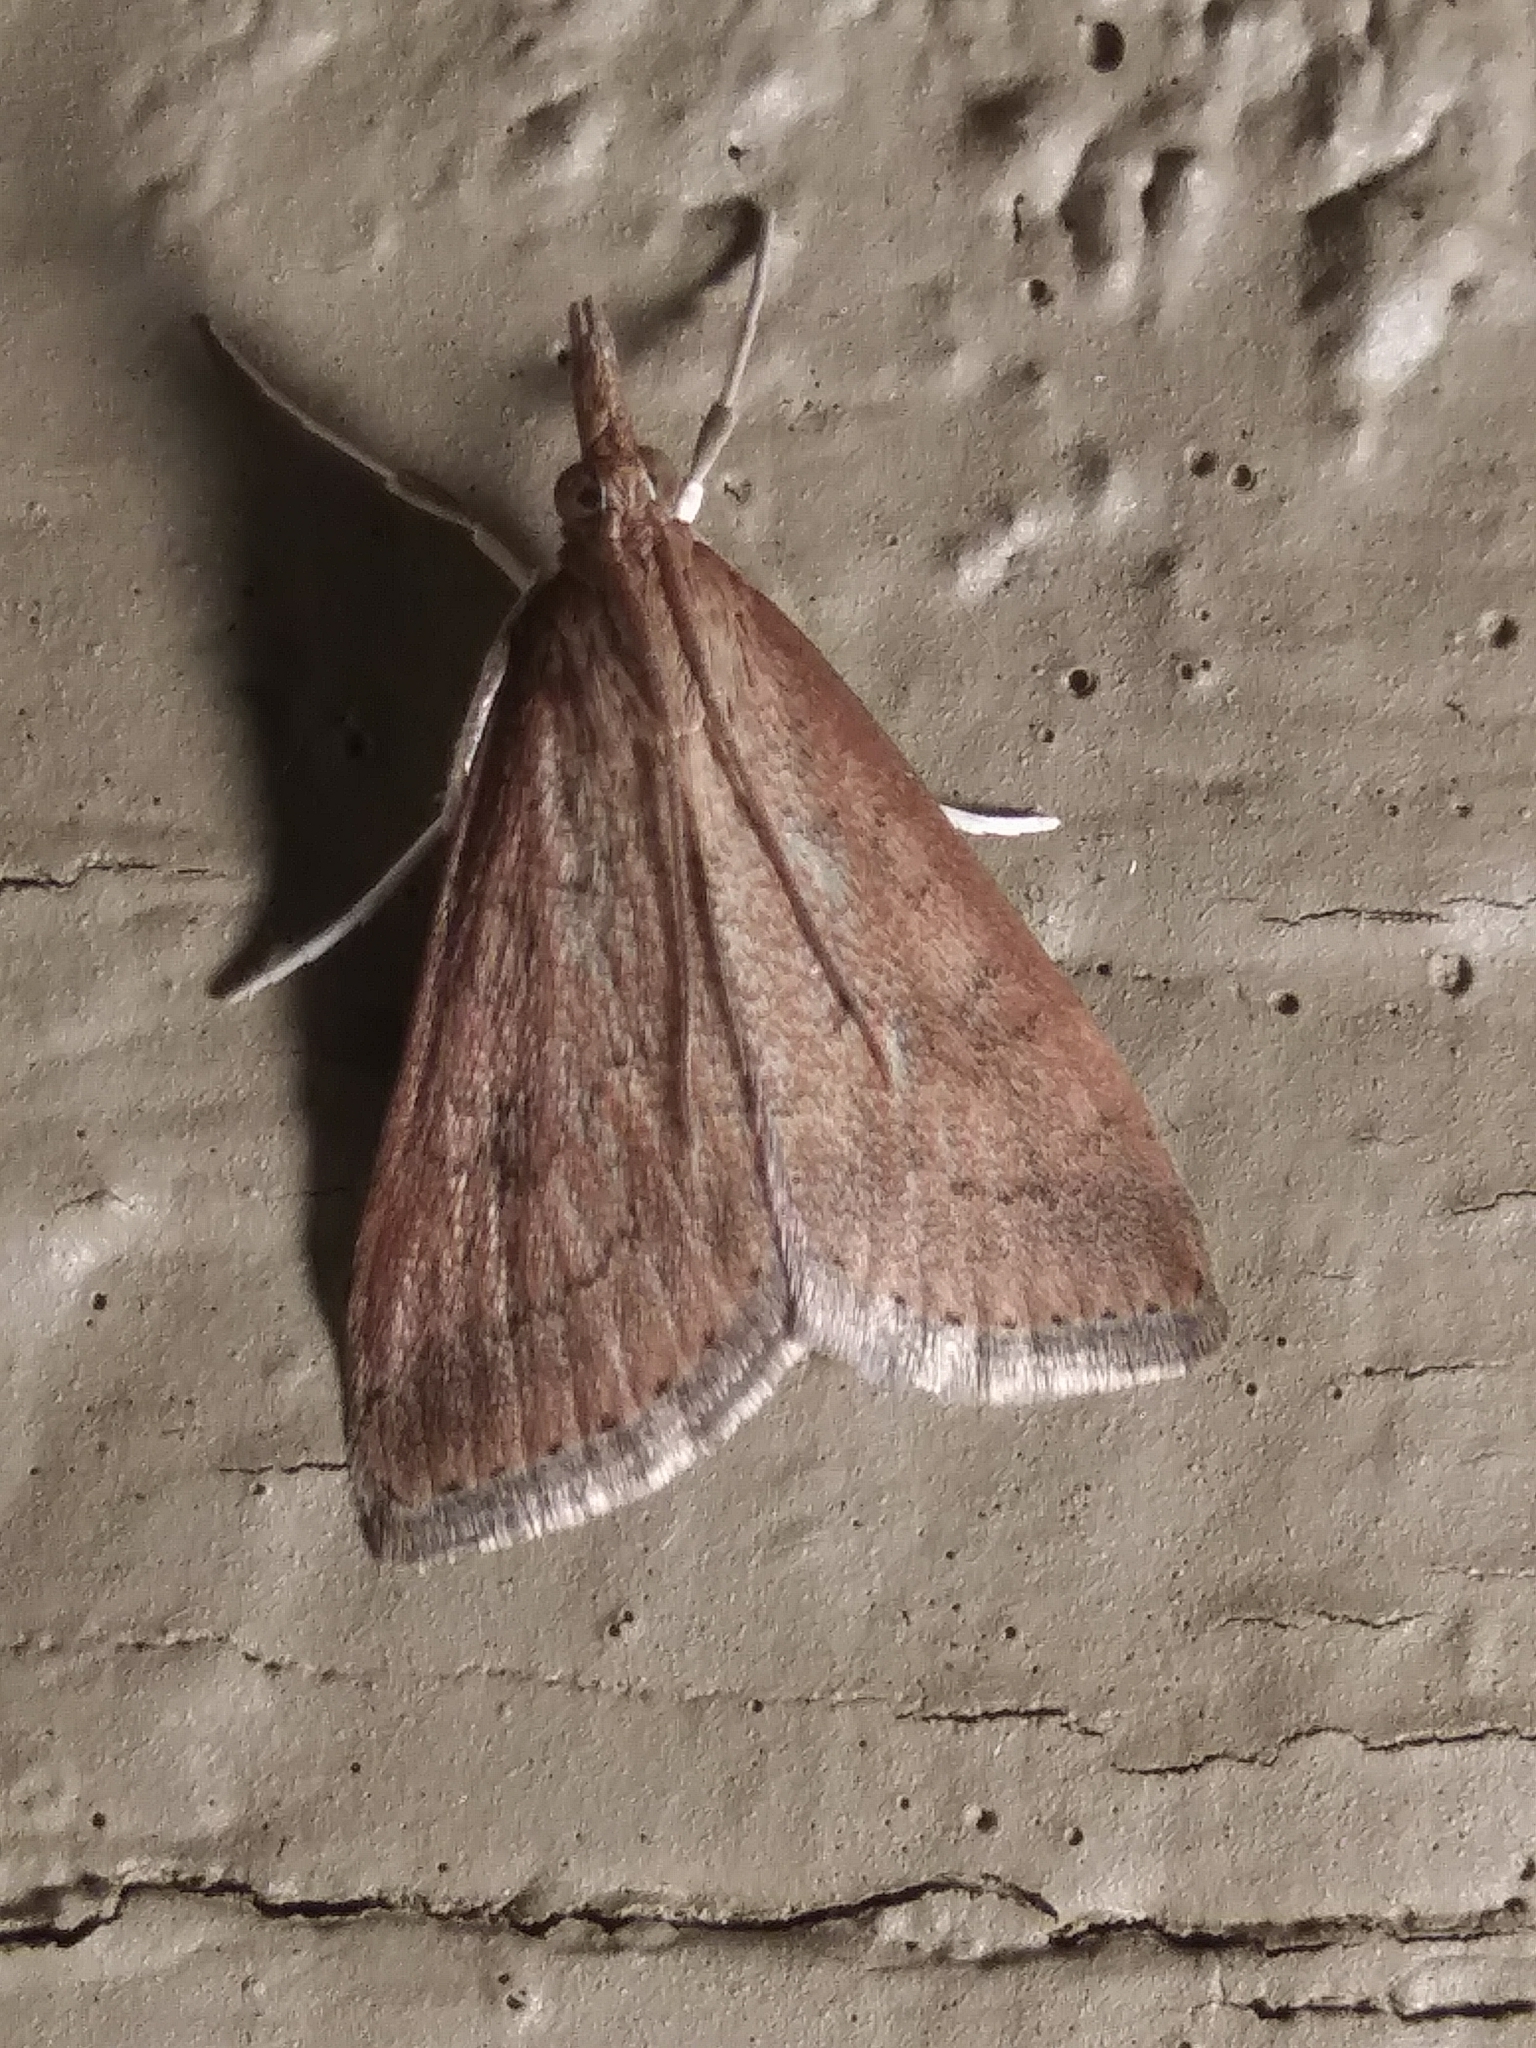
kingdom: Animalia
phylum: Arthropoda
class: Insecta
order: Lepidoptera
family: Crambidae
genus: Udea
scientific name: Udea rubigalis
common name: Celery leaftier moth
